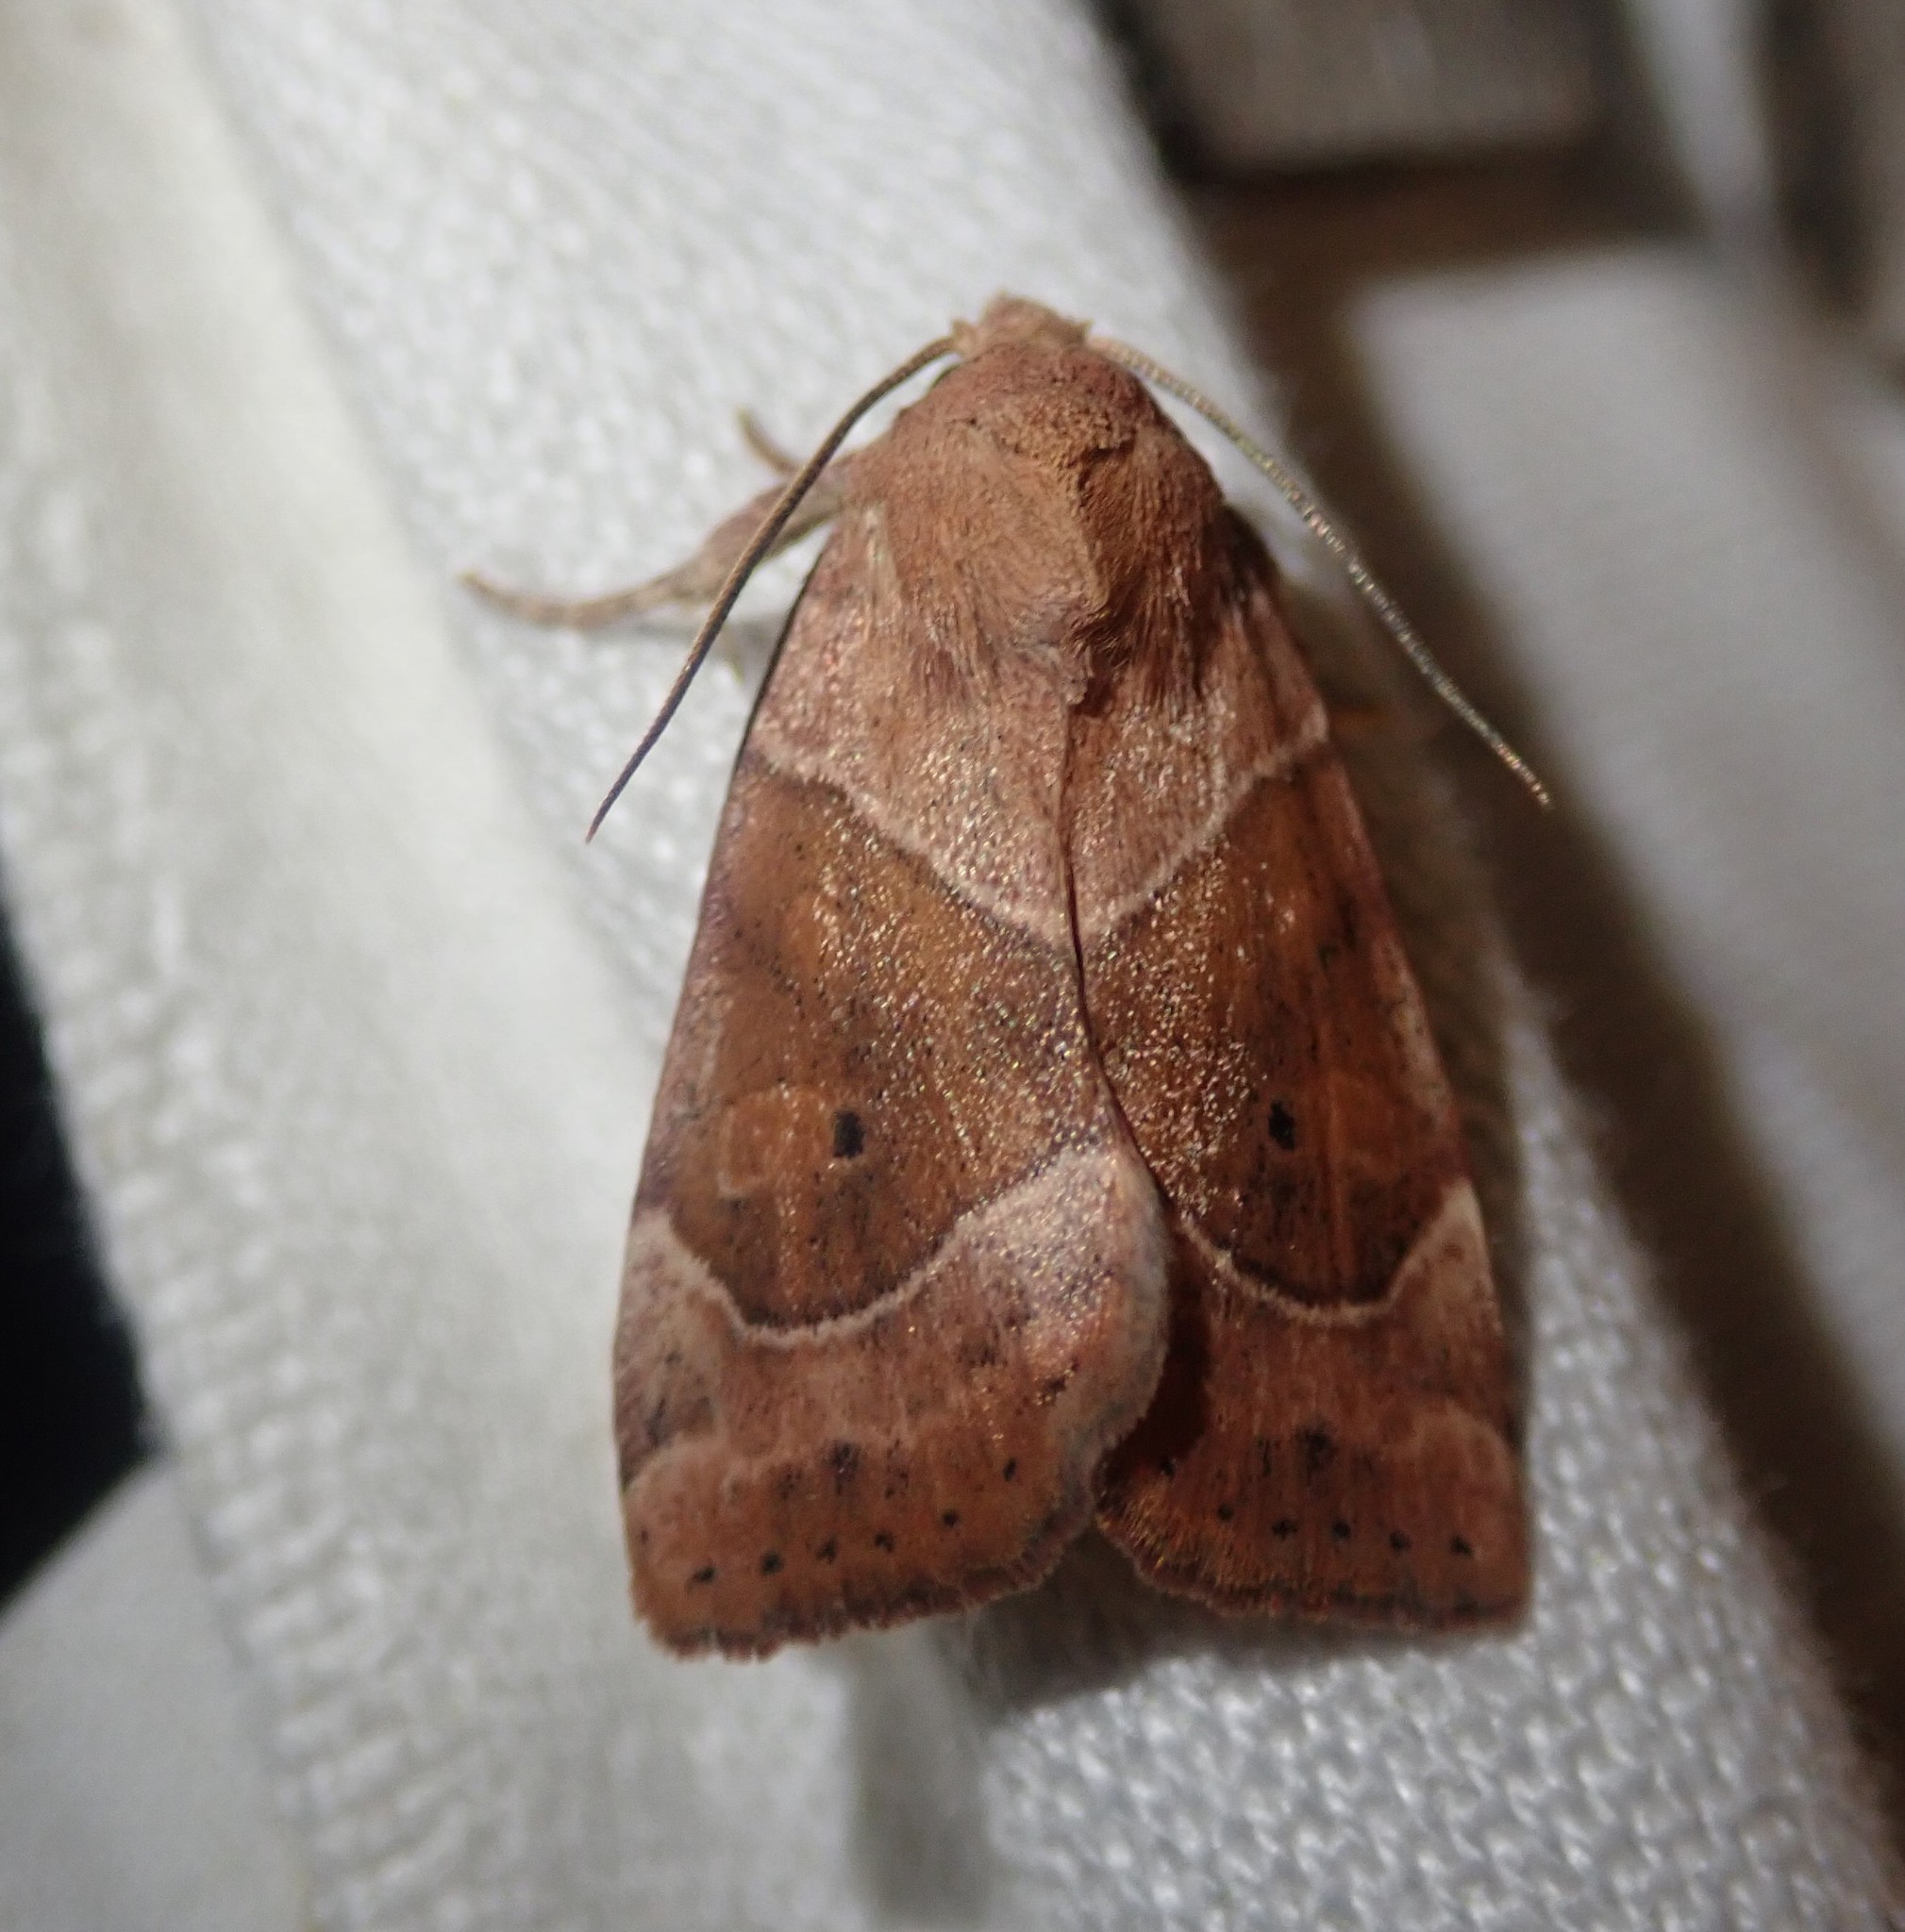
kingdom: Animalia
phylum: Arthropoda
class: Insecta
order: Lepidoptera
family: Noctuidae
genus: Cosmia
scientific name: Cosmia trapezina
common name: Dun-bar
